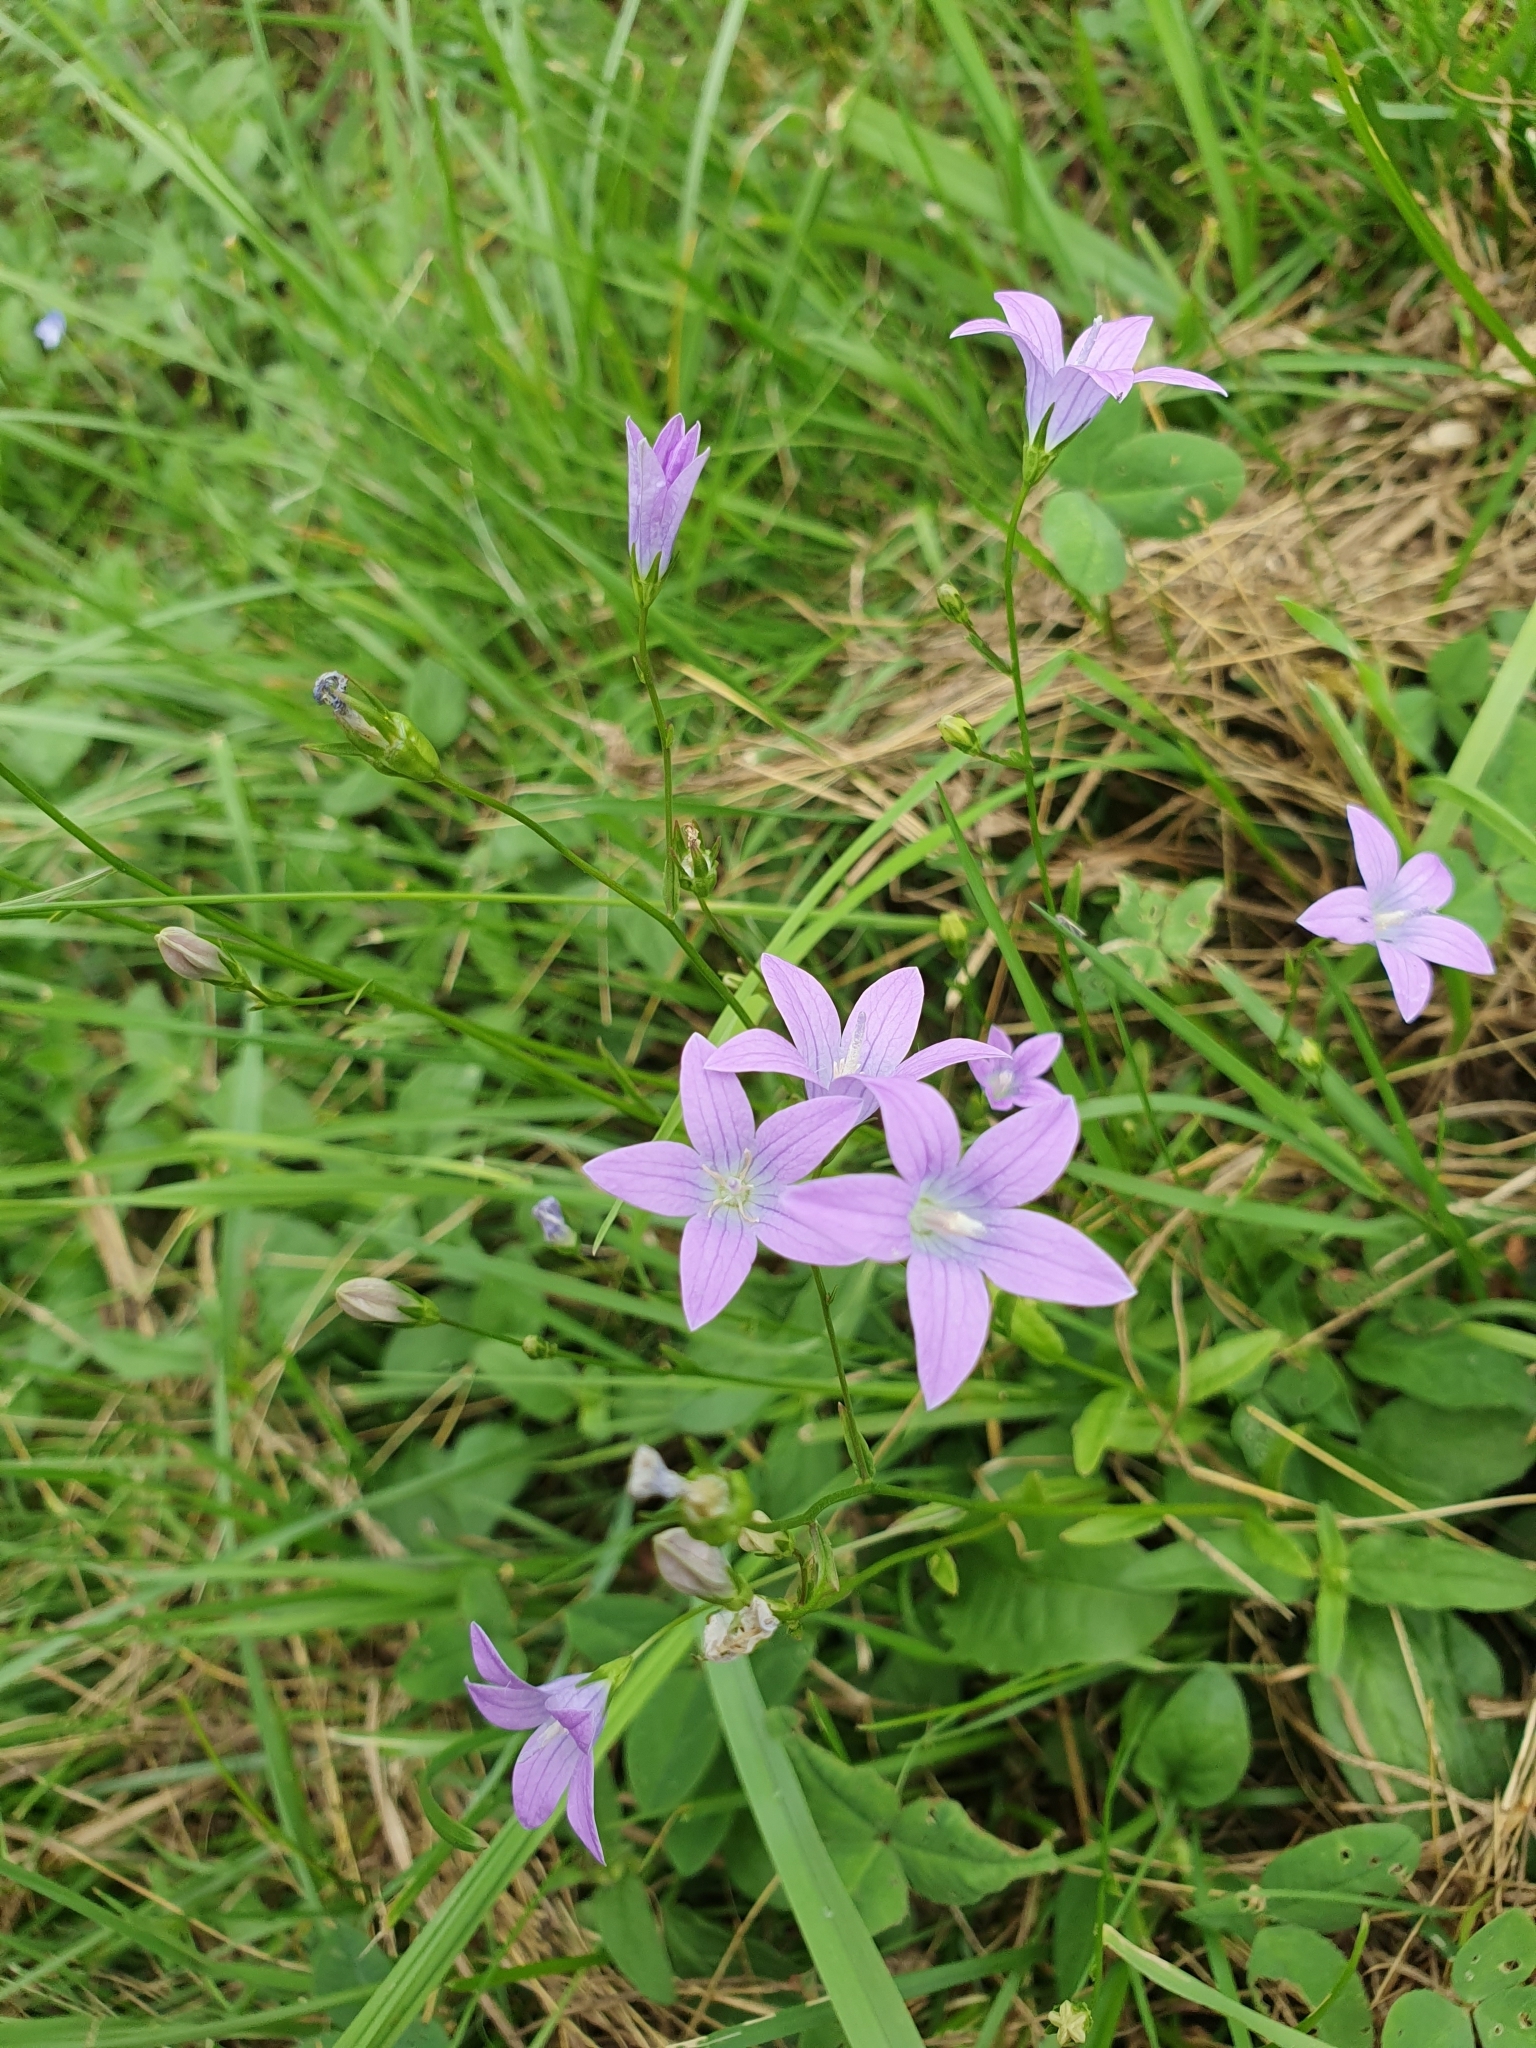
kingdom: Plantae
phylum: Tracheophyta
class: Magnoliopsida
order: Asterales
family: Campanulaceae
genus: Campanula
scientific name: Campanula patula
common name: Spreading bellflower
